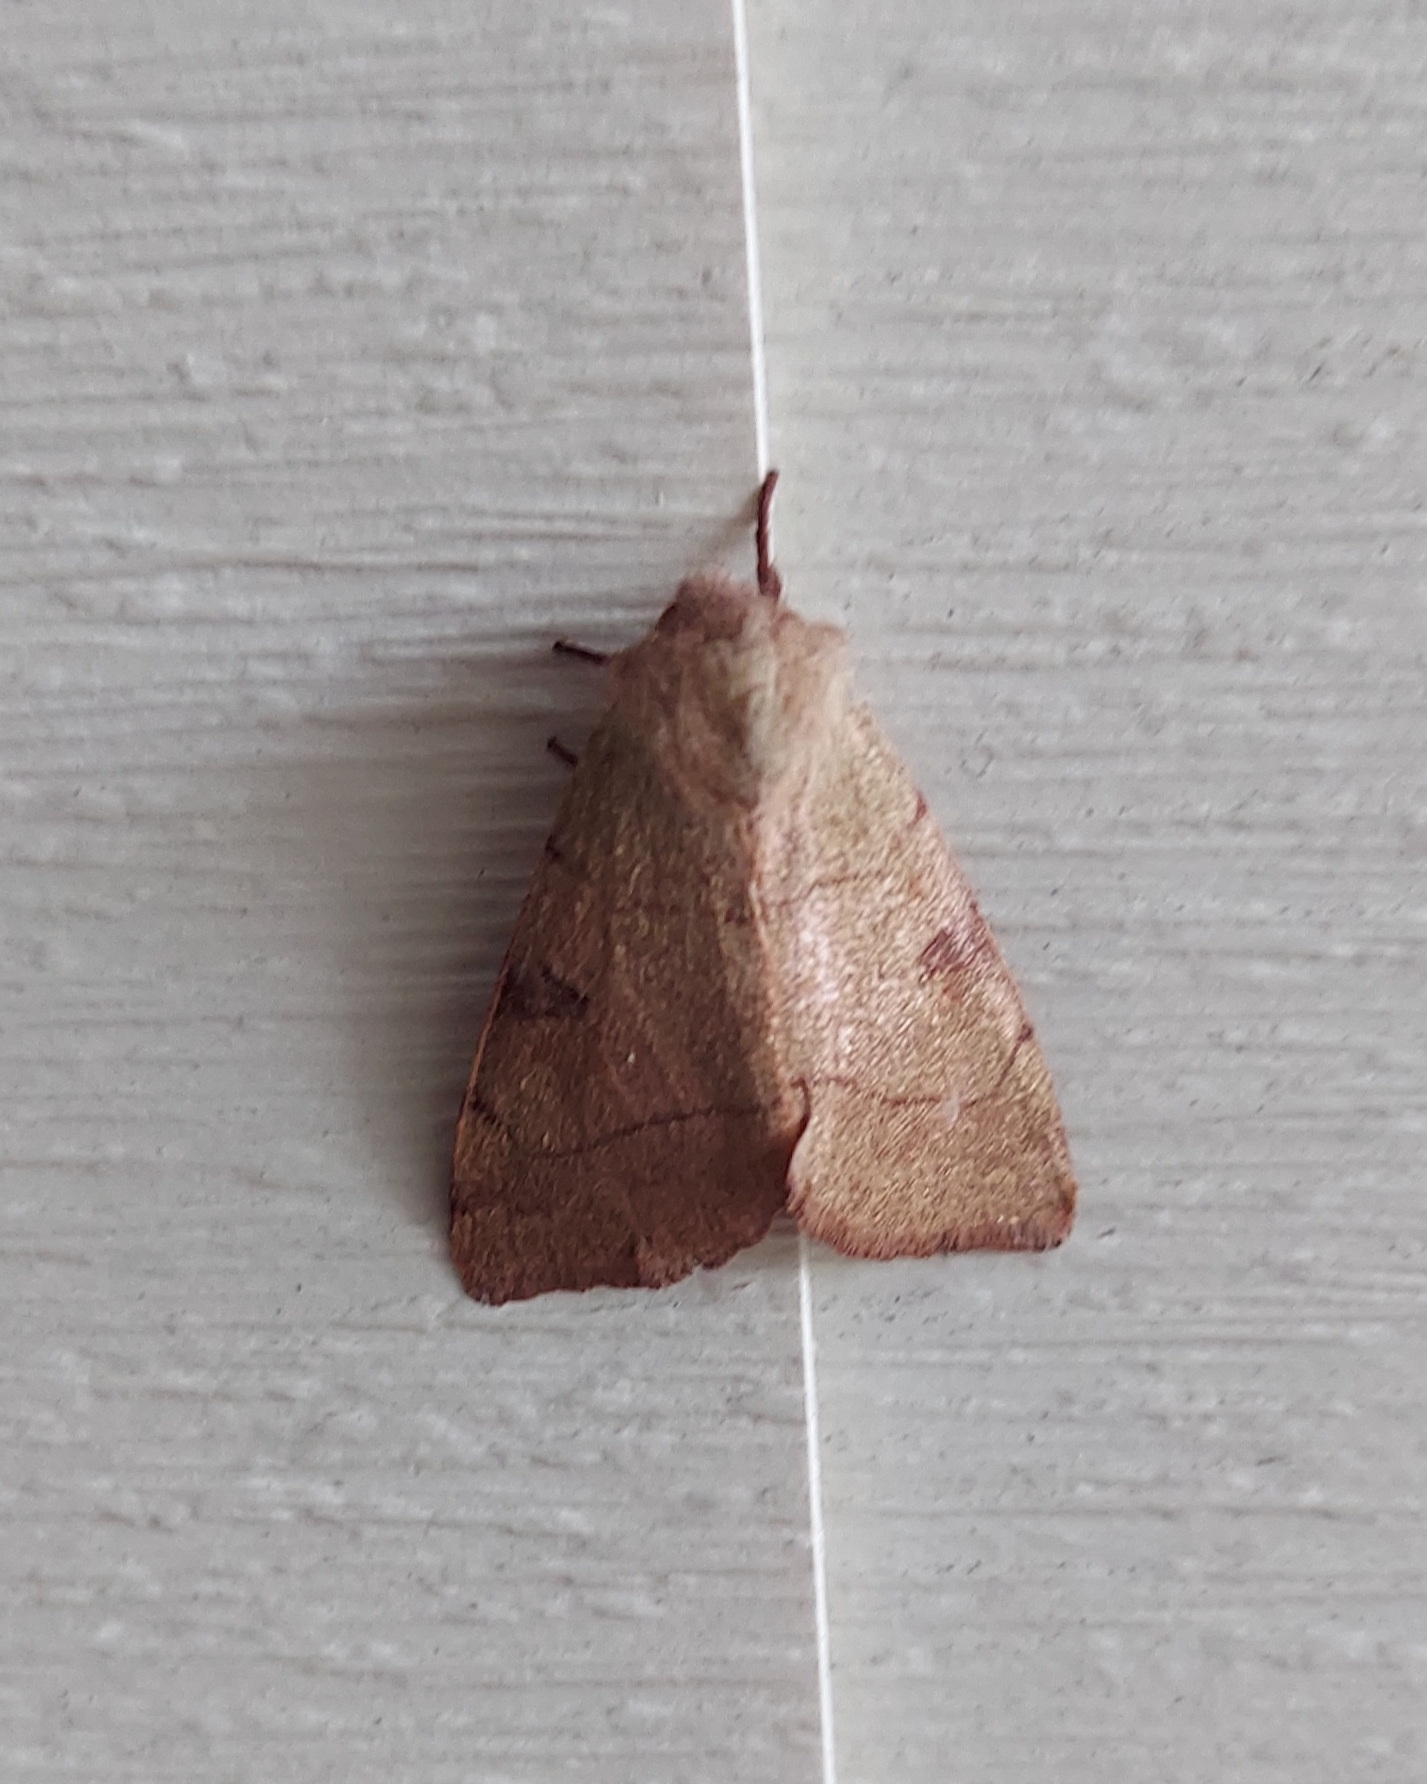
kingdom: Animalia
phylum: Arthropoda
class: Insecta
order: Lepidoptera
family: Noctuidae
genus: Choephora
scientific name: Choephora fungorum
